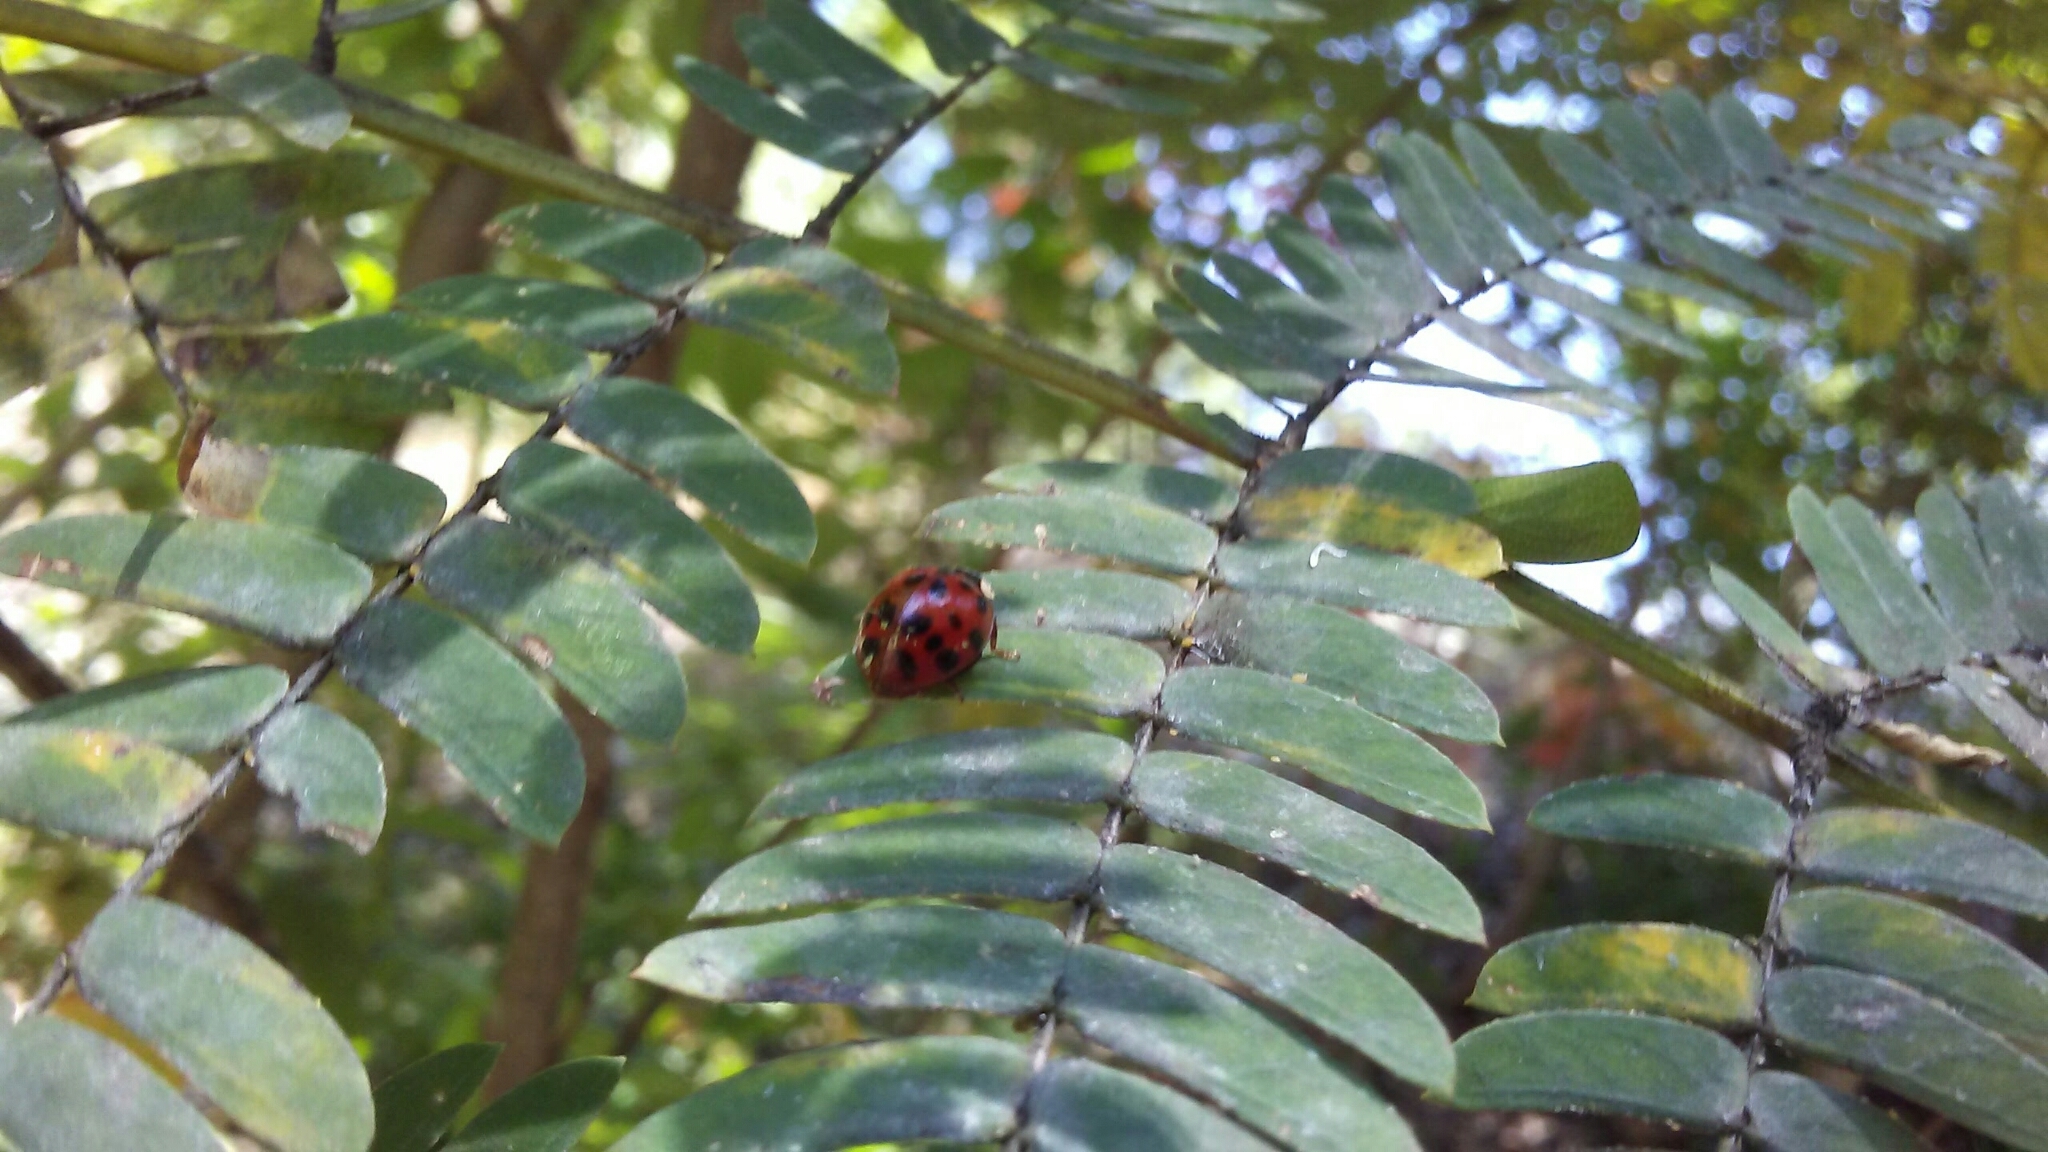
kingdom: Animalia
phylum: Arthropoda
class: Insecta
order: Coleoptera
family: Coccinellidae
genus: Harmonia
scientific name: Harmonia axyridis
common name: Harlequin ladybird
